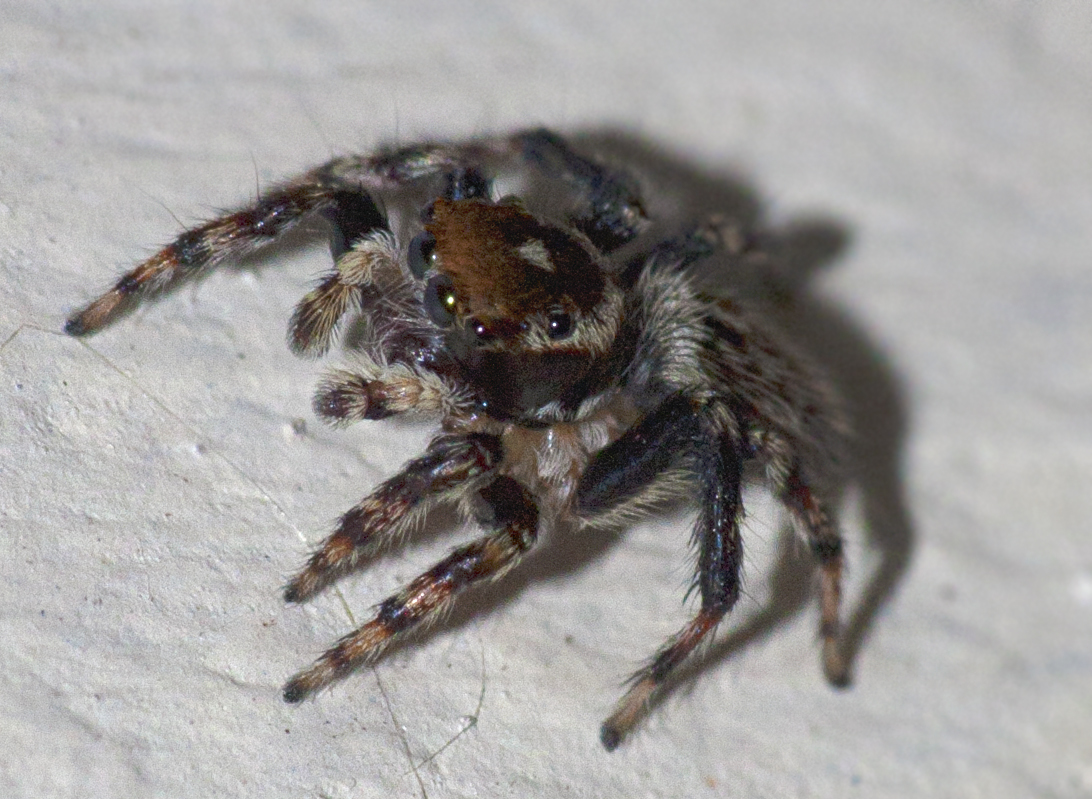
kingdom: Animalia
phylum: Arthropoda
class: Arachnida
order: Araneae
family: Salticidae
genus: Maratus
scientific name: Maratus griseus
